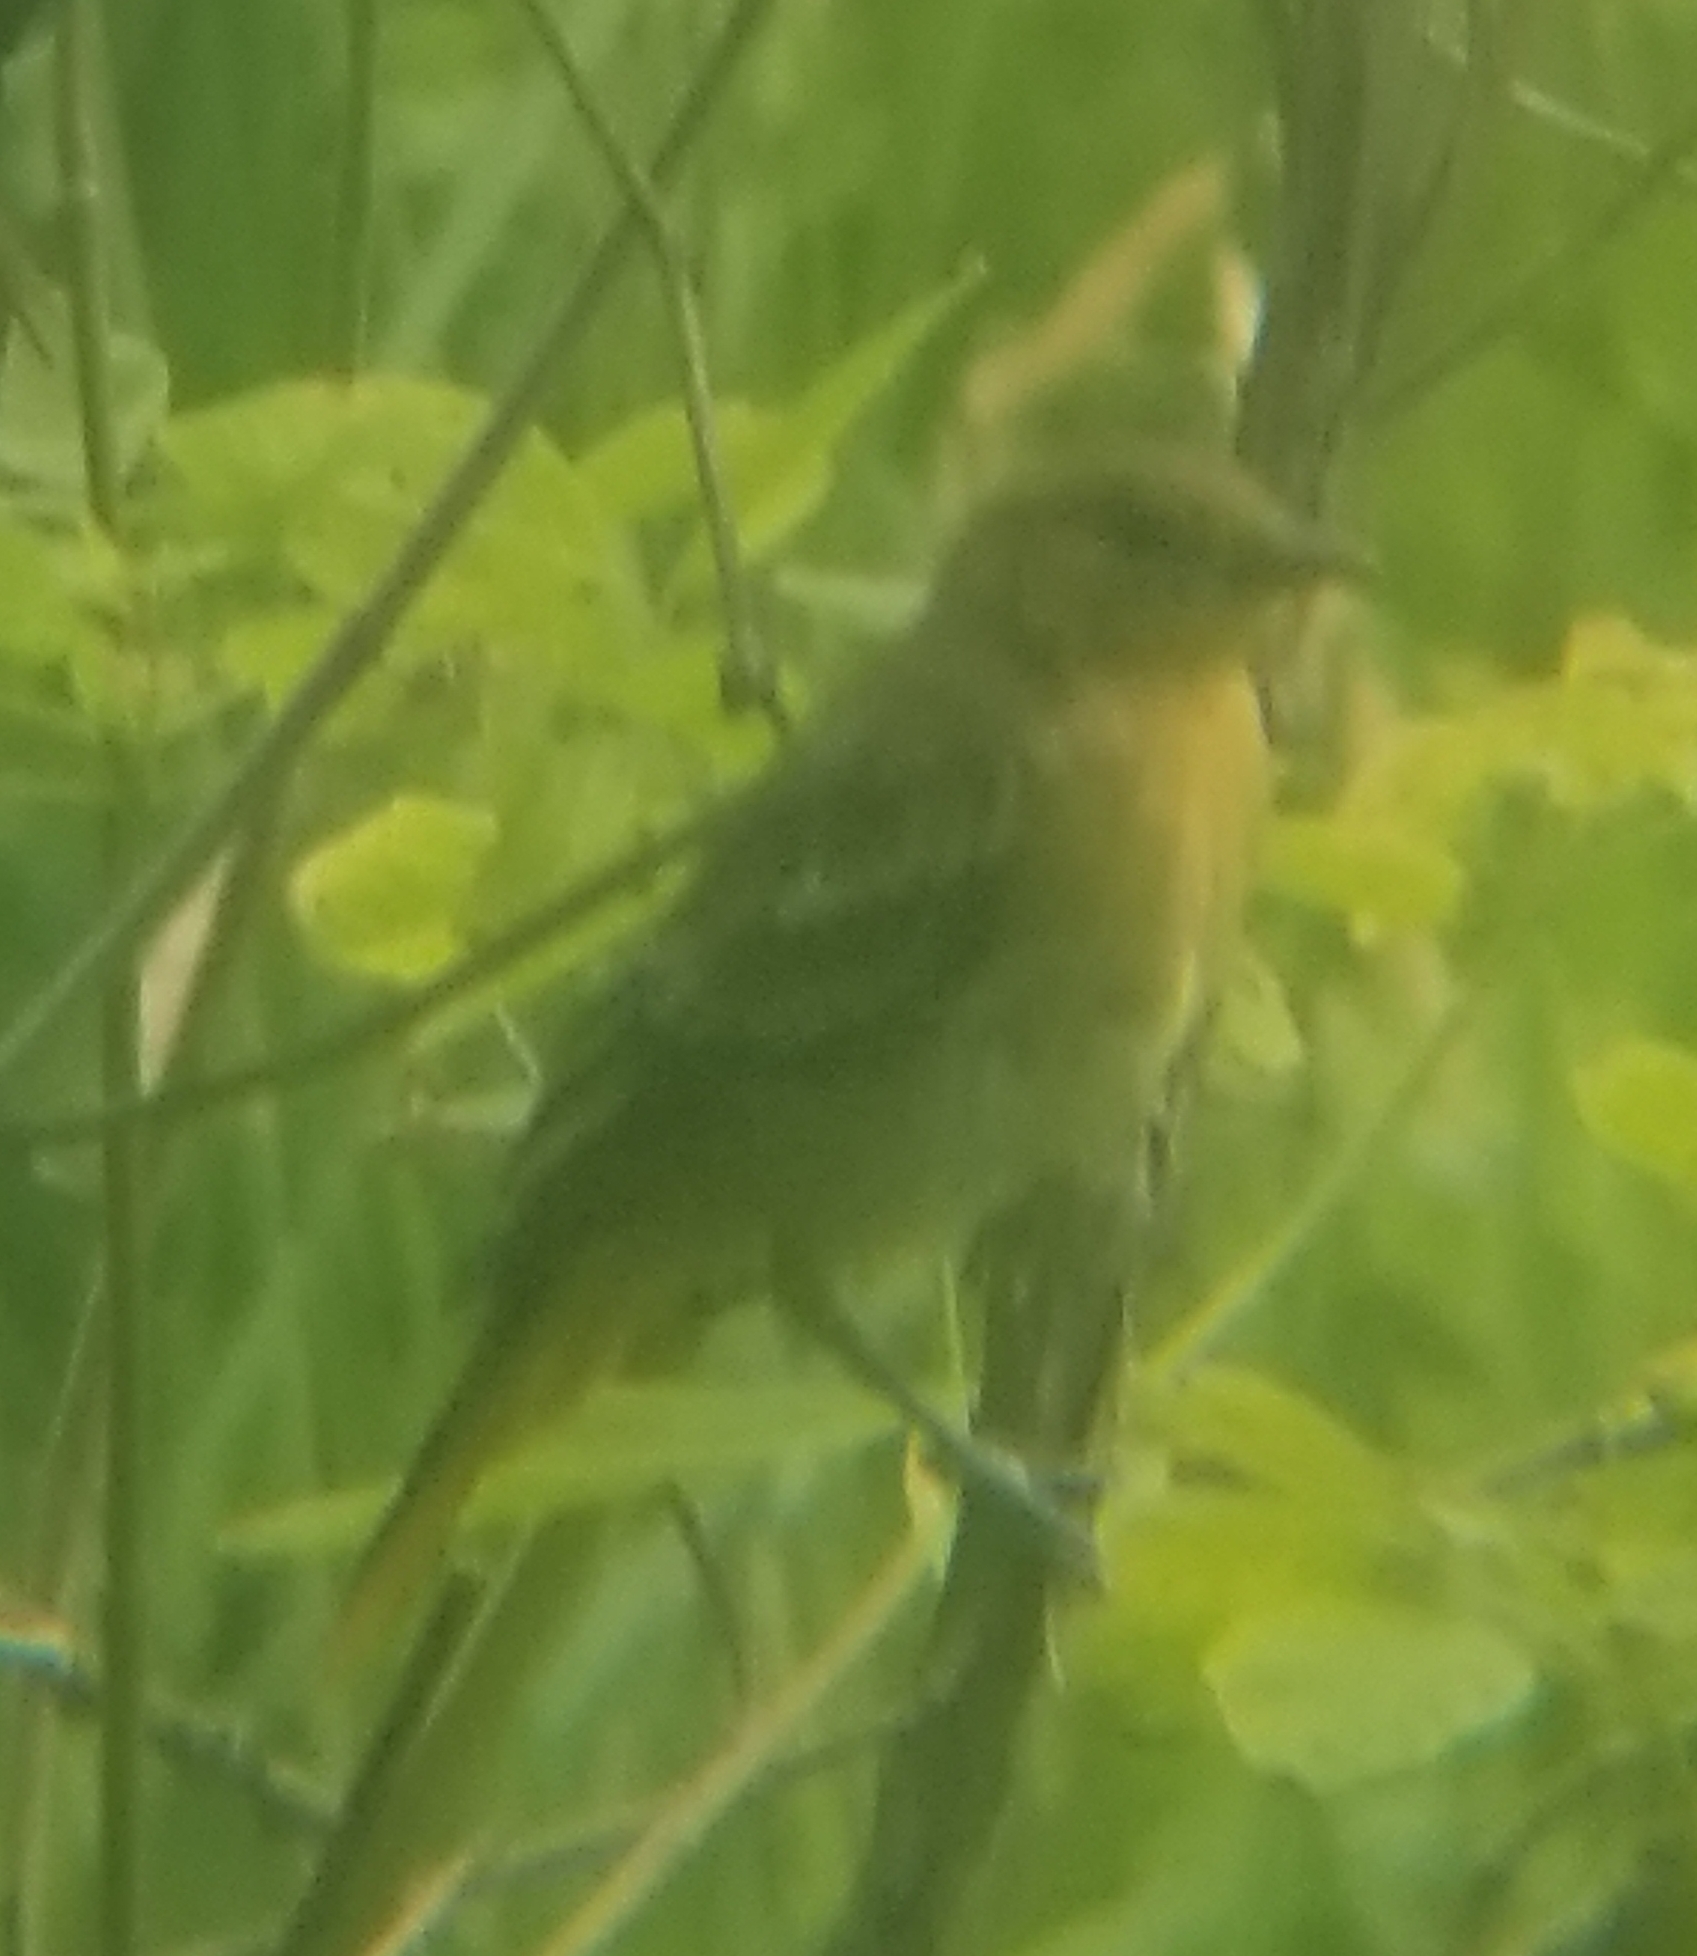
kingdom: Animalia
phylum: Chordata
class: Aves
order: Passeriformes
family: Icteridae
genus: Icterus
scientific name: Icterus galbula
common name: Baltimore oriole
